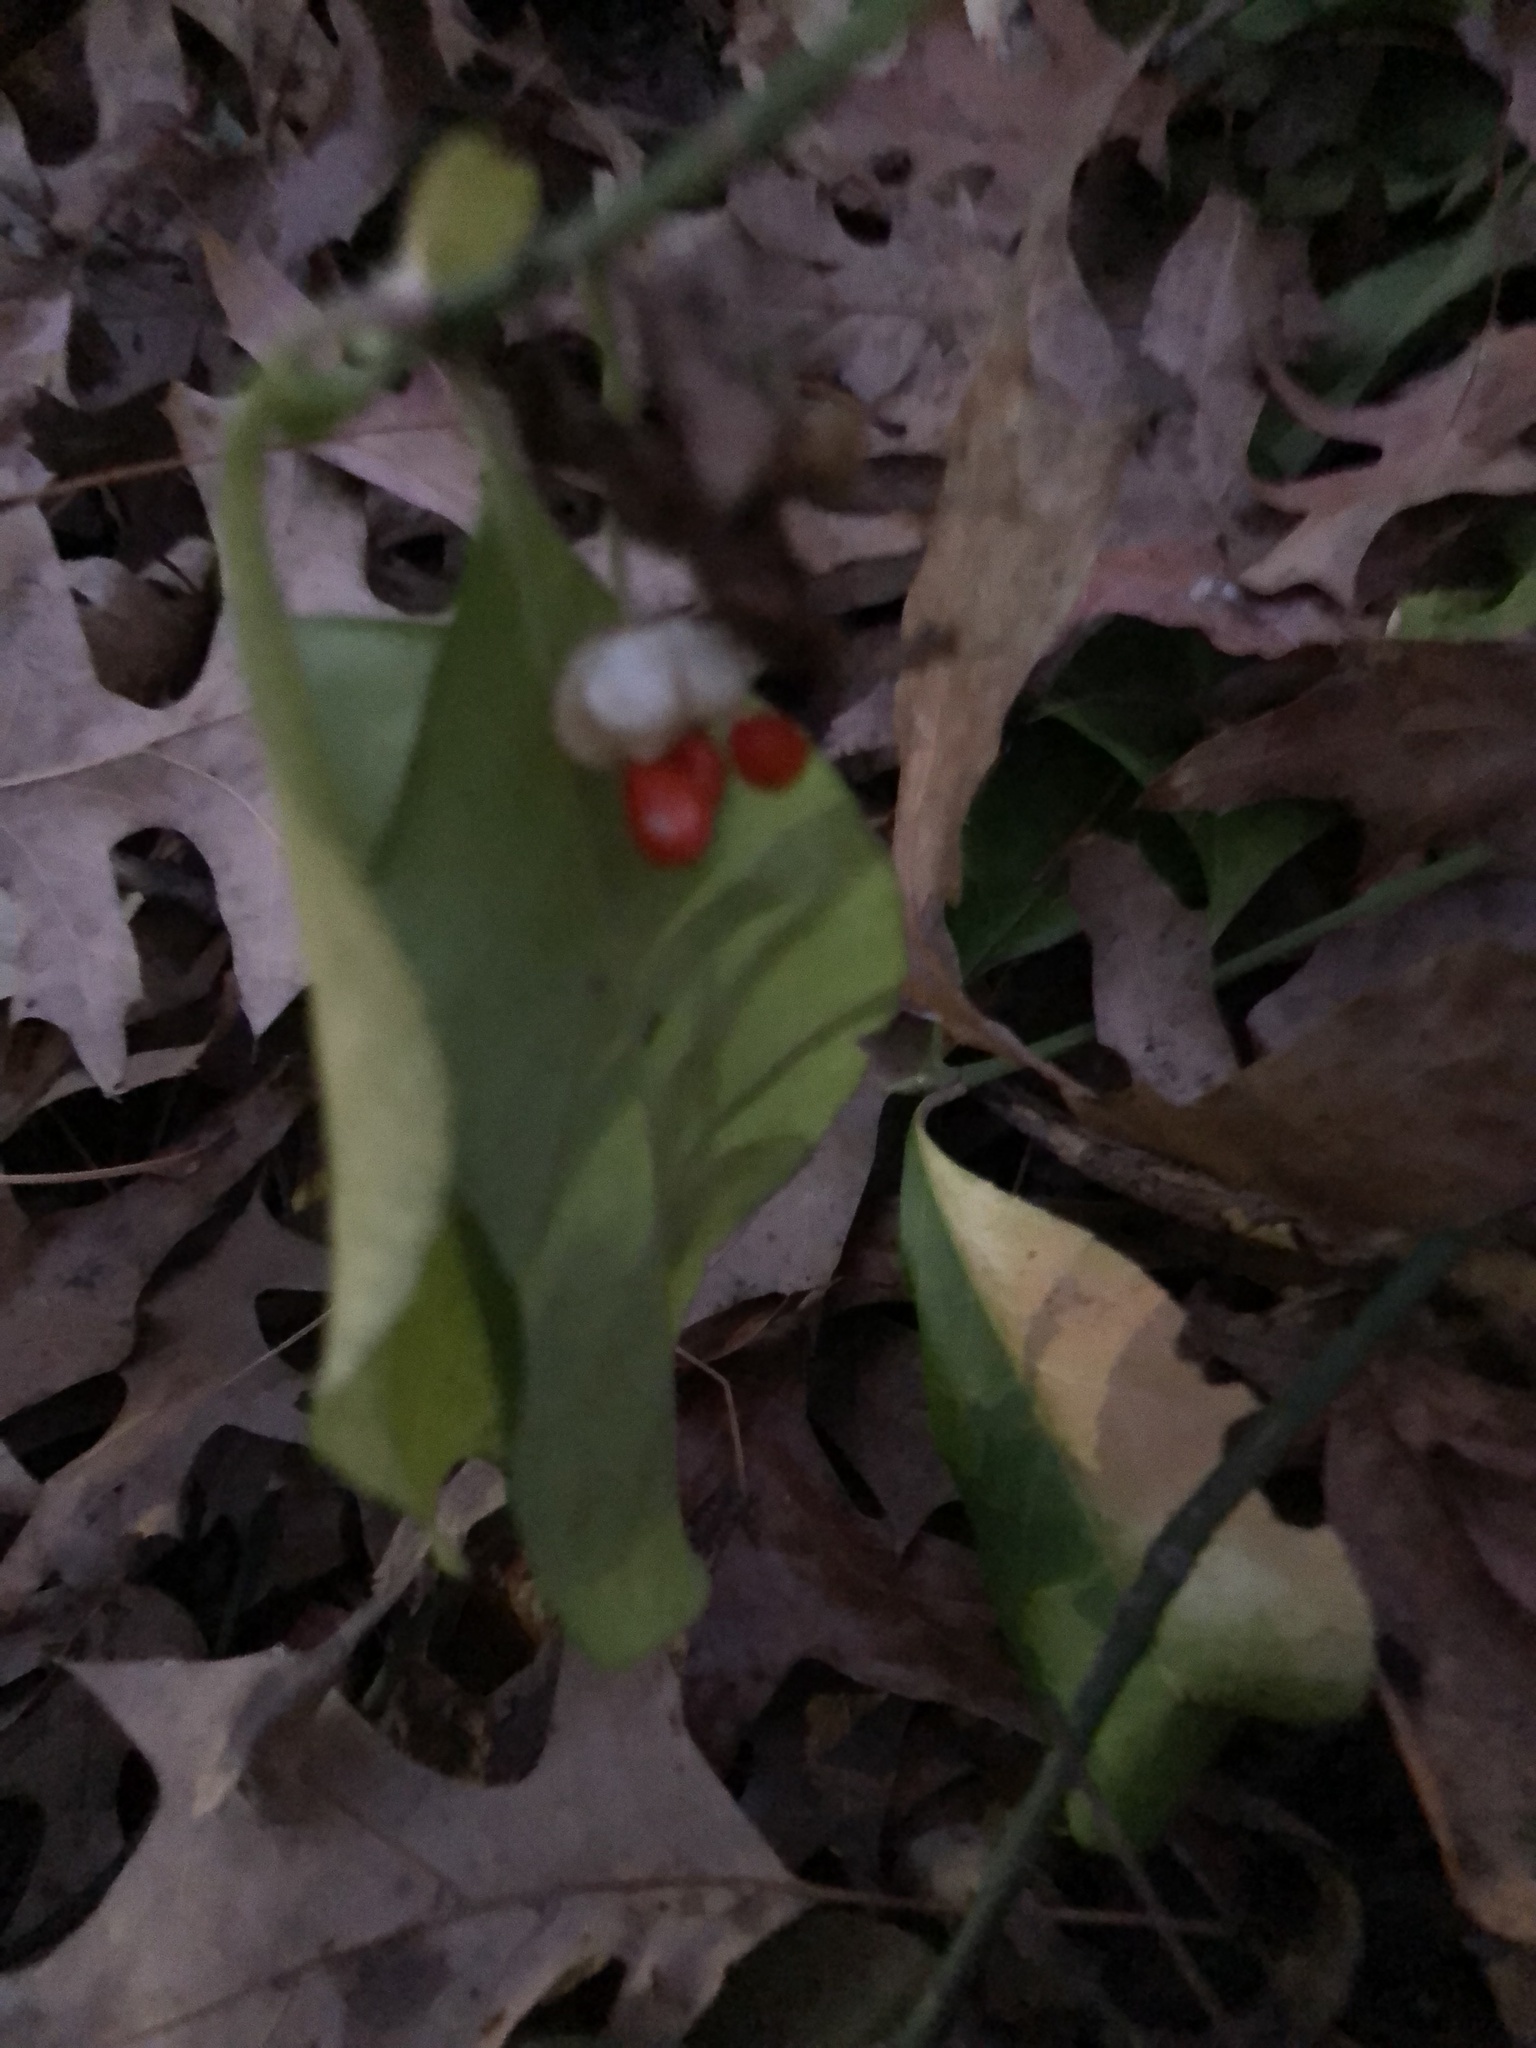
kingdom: Plantae
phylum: Tracheophyta
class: Magnoliopsida
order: Celastrales
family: Celastraceae
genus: Euonymus
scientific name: Euonymus fortunei
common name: Climbing euonymus
